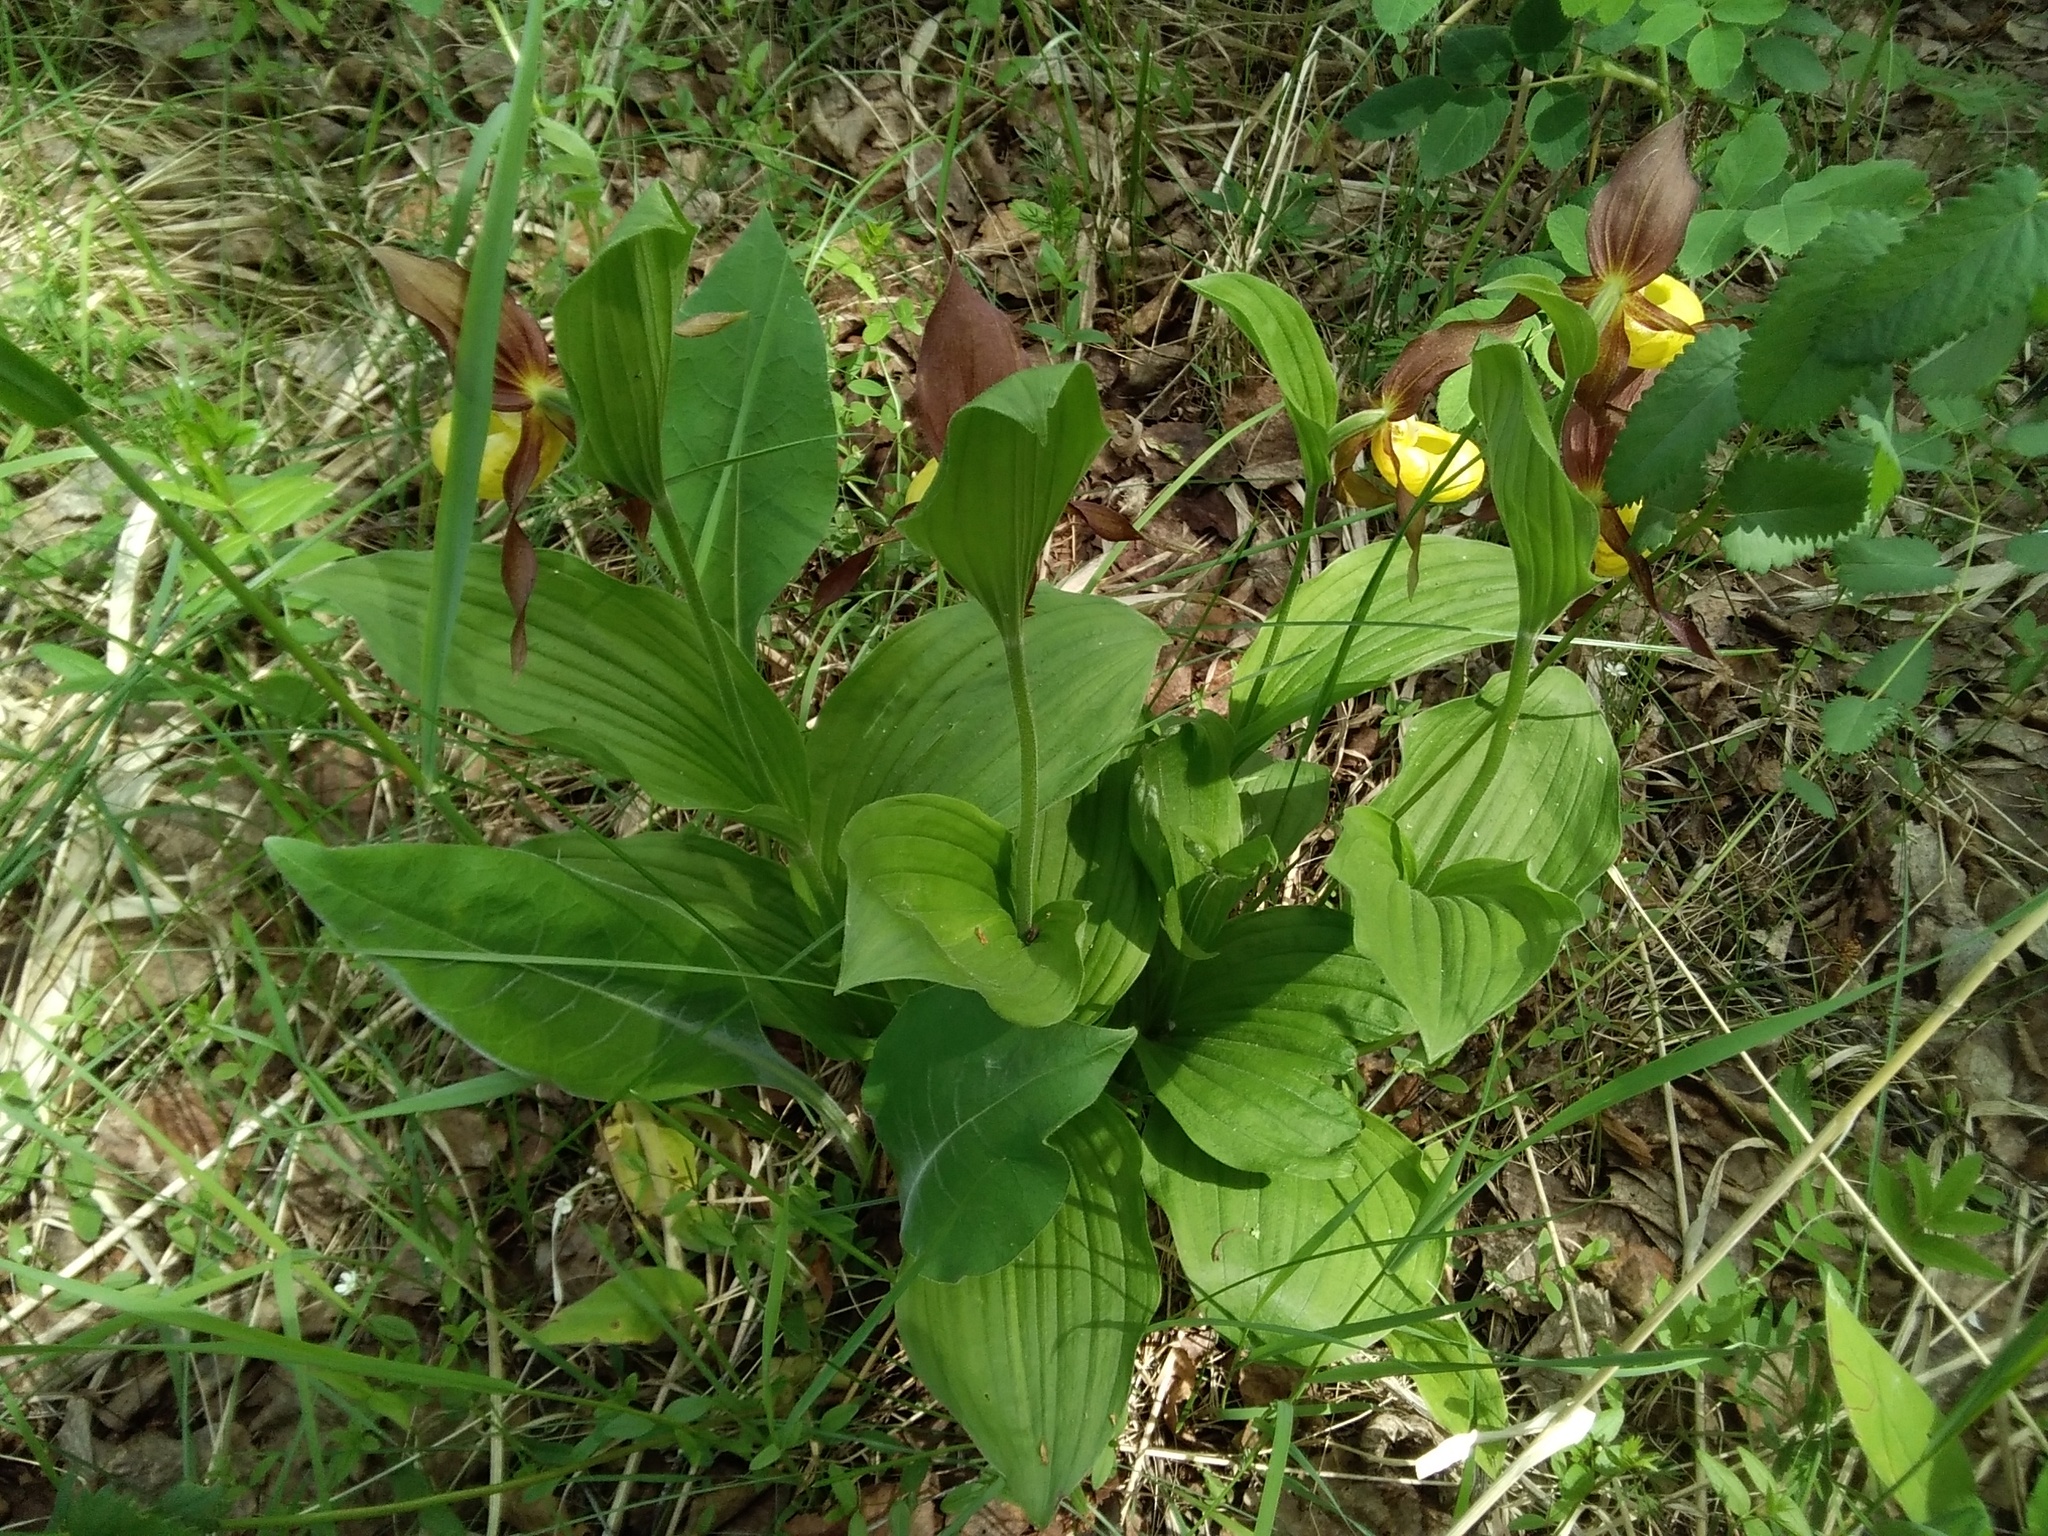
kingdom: Plantae
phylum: Tracheophyta
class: Liliopsida
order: Asparagales
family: Orchidaceae
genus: Cypripedium
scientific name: Cypripedium calceolus
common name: Lady's-slipper
